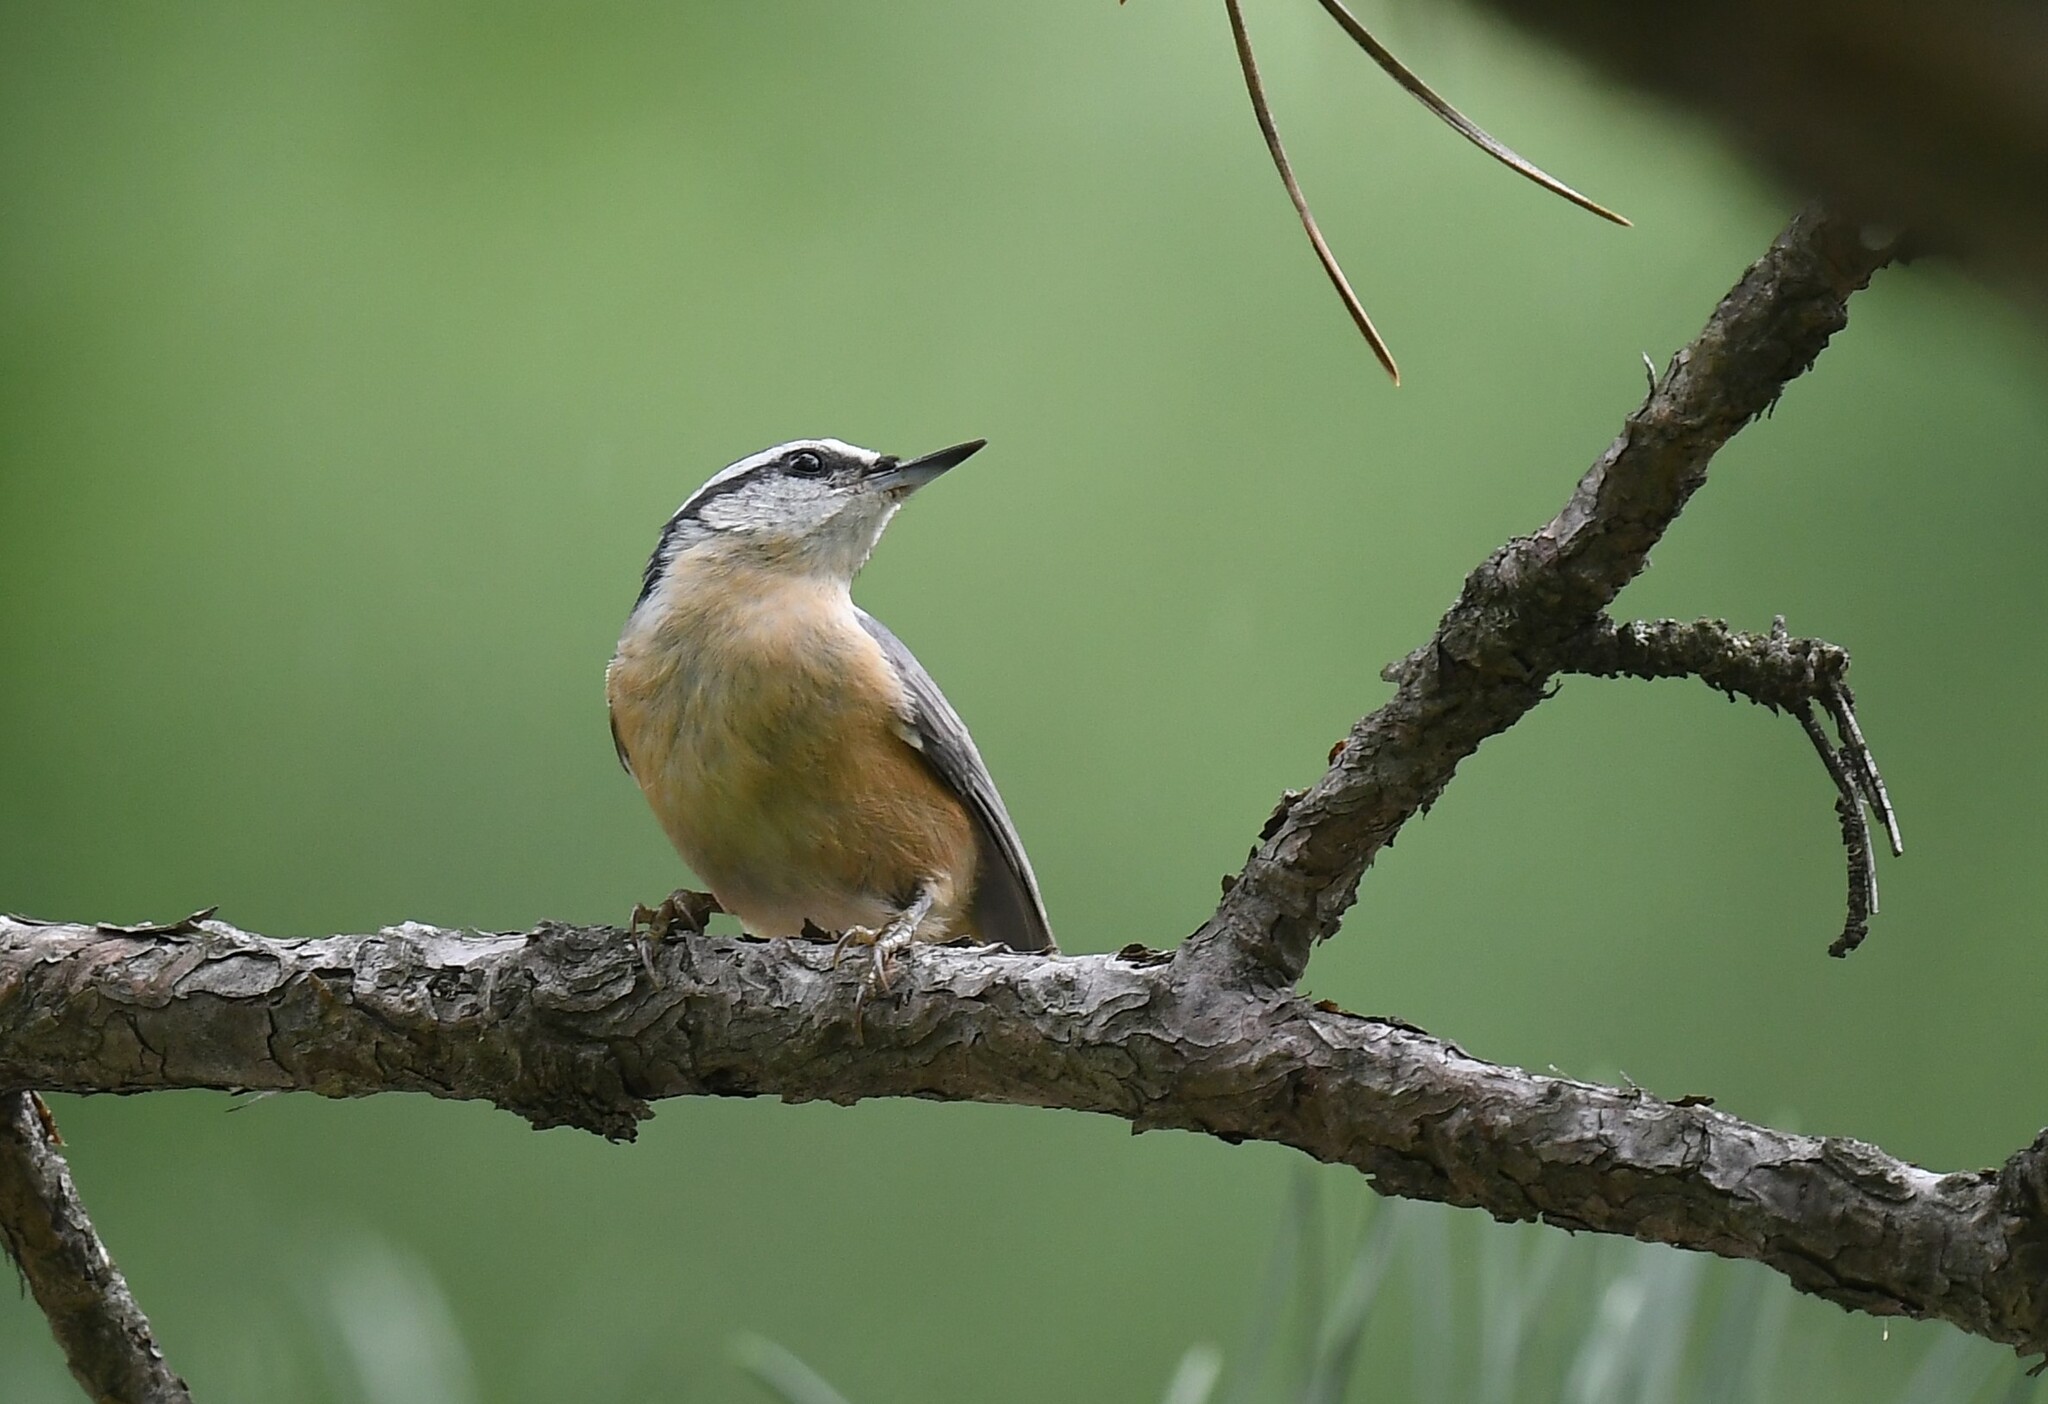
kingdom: Animalia
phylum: Chordata
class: Aves
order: Passeriformes
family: Sittidae
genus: Sitta
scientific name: Sitta canadensis
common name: Red-breasted nuthatch
